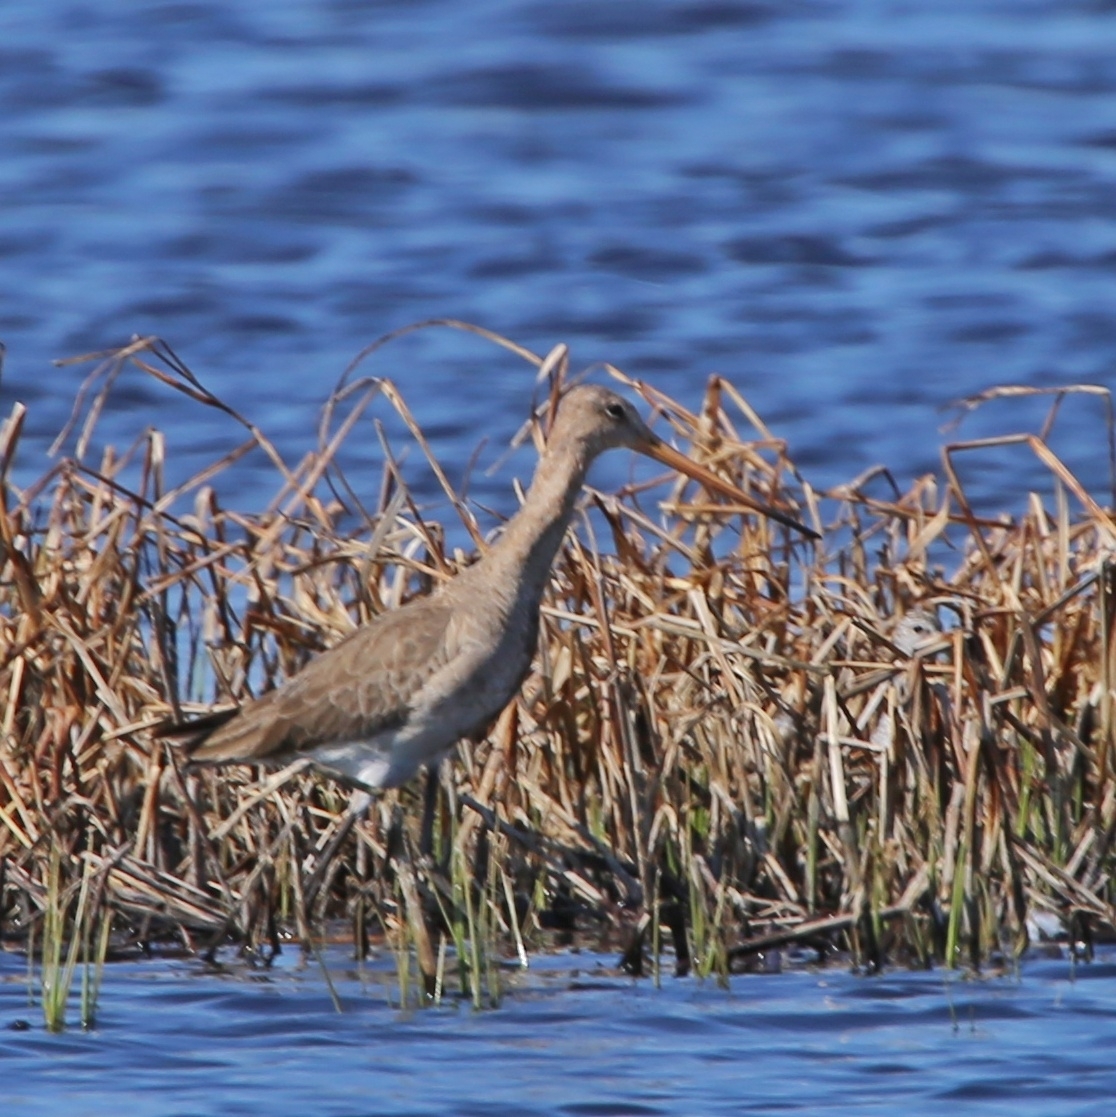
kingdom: Animalia
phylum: Chordata
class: Aves
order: Charadriiformes
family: Scolopacidae
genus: Limosa
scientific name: Limosa limosa
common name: Black-tailed godwit
